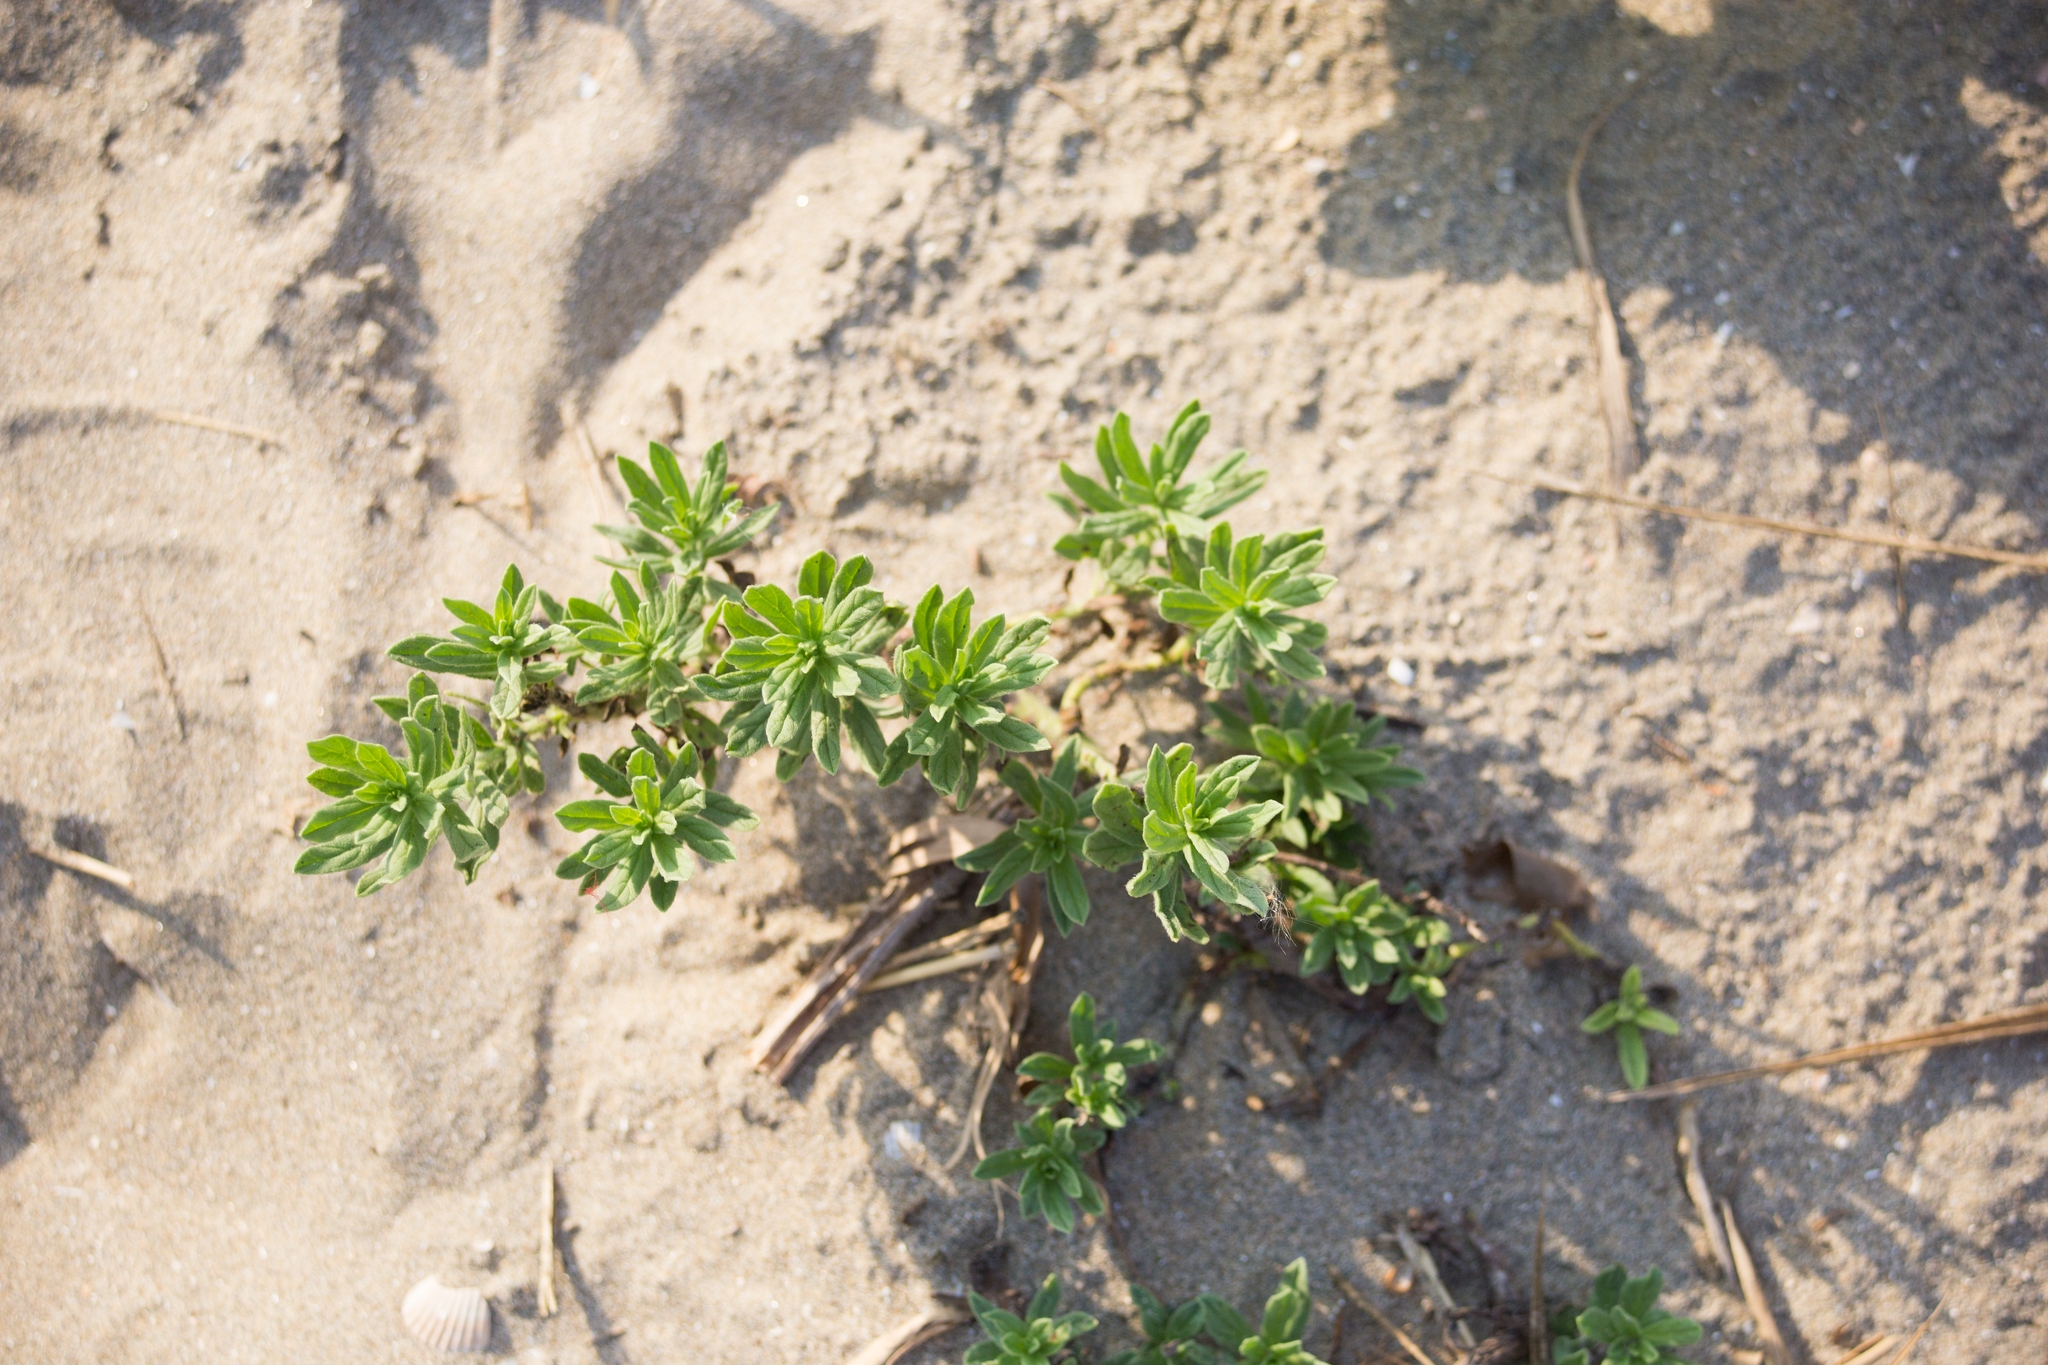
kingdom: Plantae
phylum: Tracheophyta
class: Magnoliopsida
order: Boraginales
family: Heliotropiaceae
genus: Tournefortia
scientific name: Tournefortia sibirica
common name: Siberian sea rosemary
